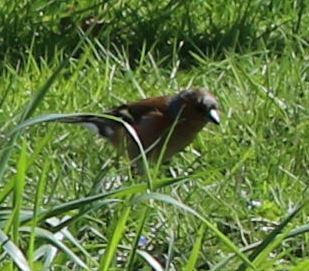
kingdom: Animalia
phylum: Chordata
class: Aves
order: Passeriformes
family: Fringillidae
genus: Fringilla
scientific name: Fringilla coelebs
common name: Common chaffinch
